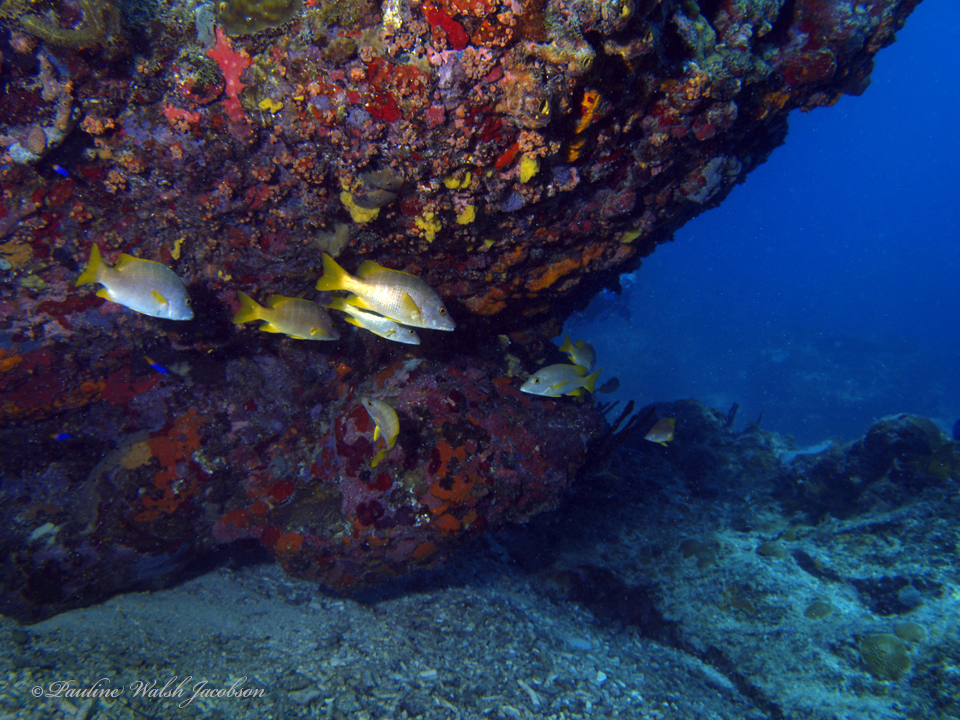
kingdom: Animalia
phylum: Chordata
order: Perciformes
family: Lutjanidae
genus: Lutjanus
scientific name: Lutjanus apodus
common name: Schoolmaster
